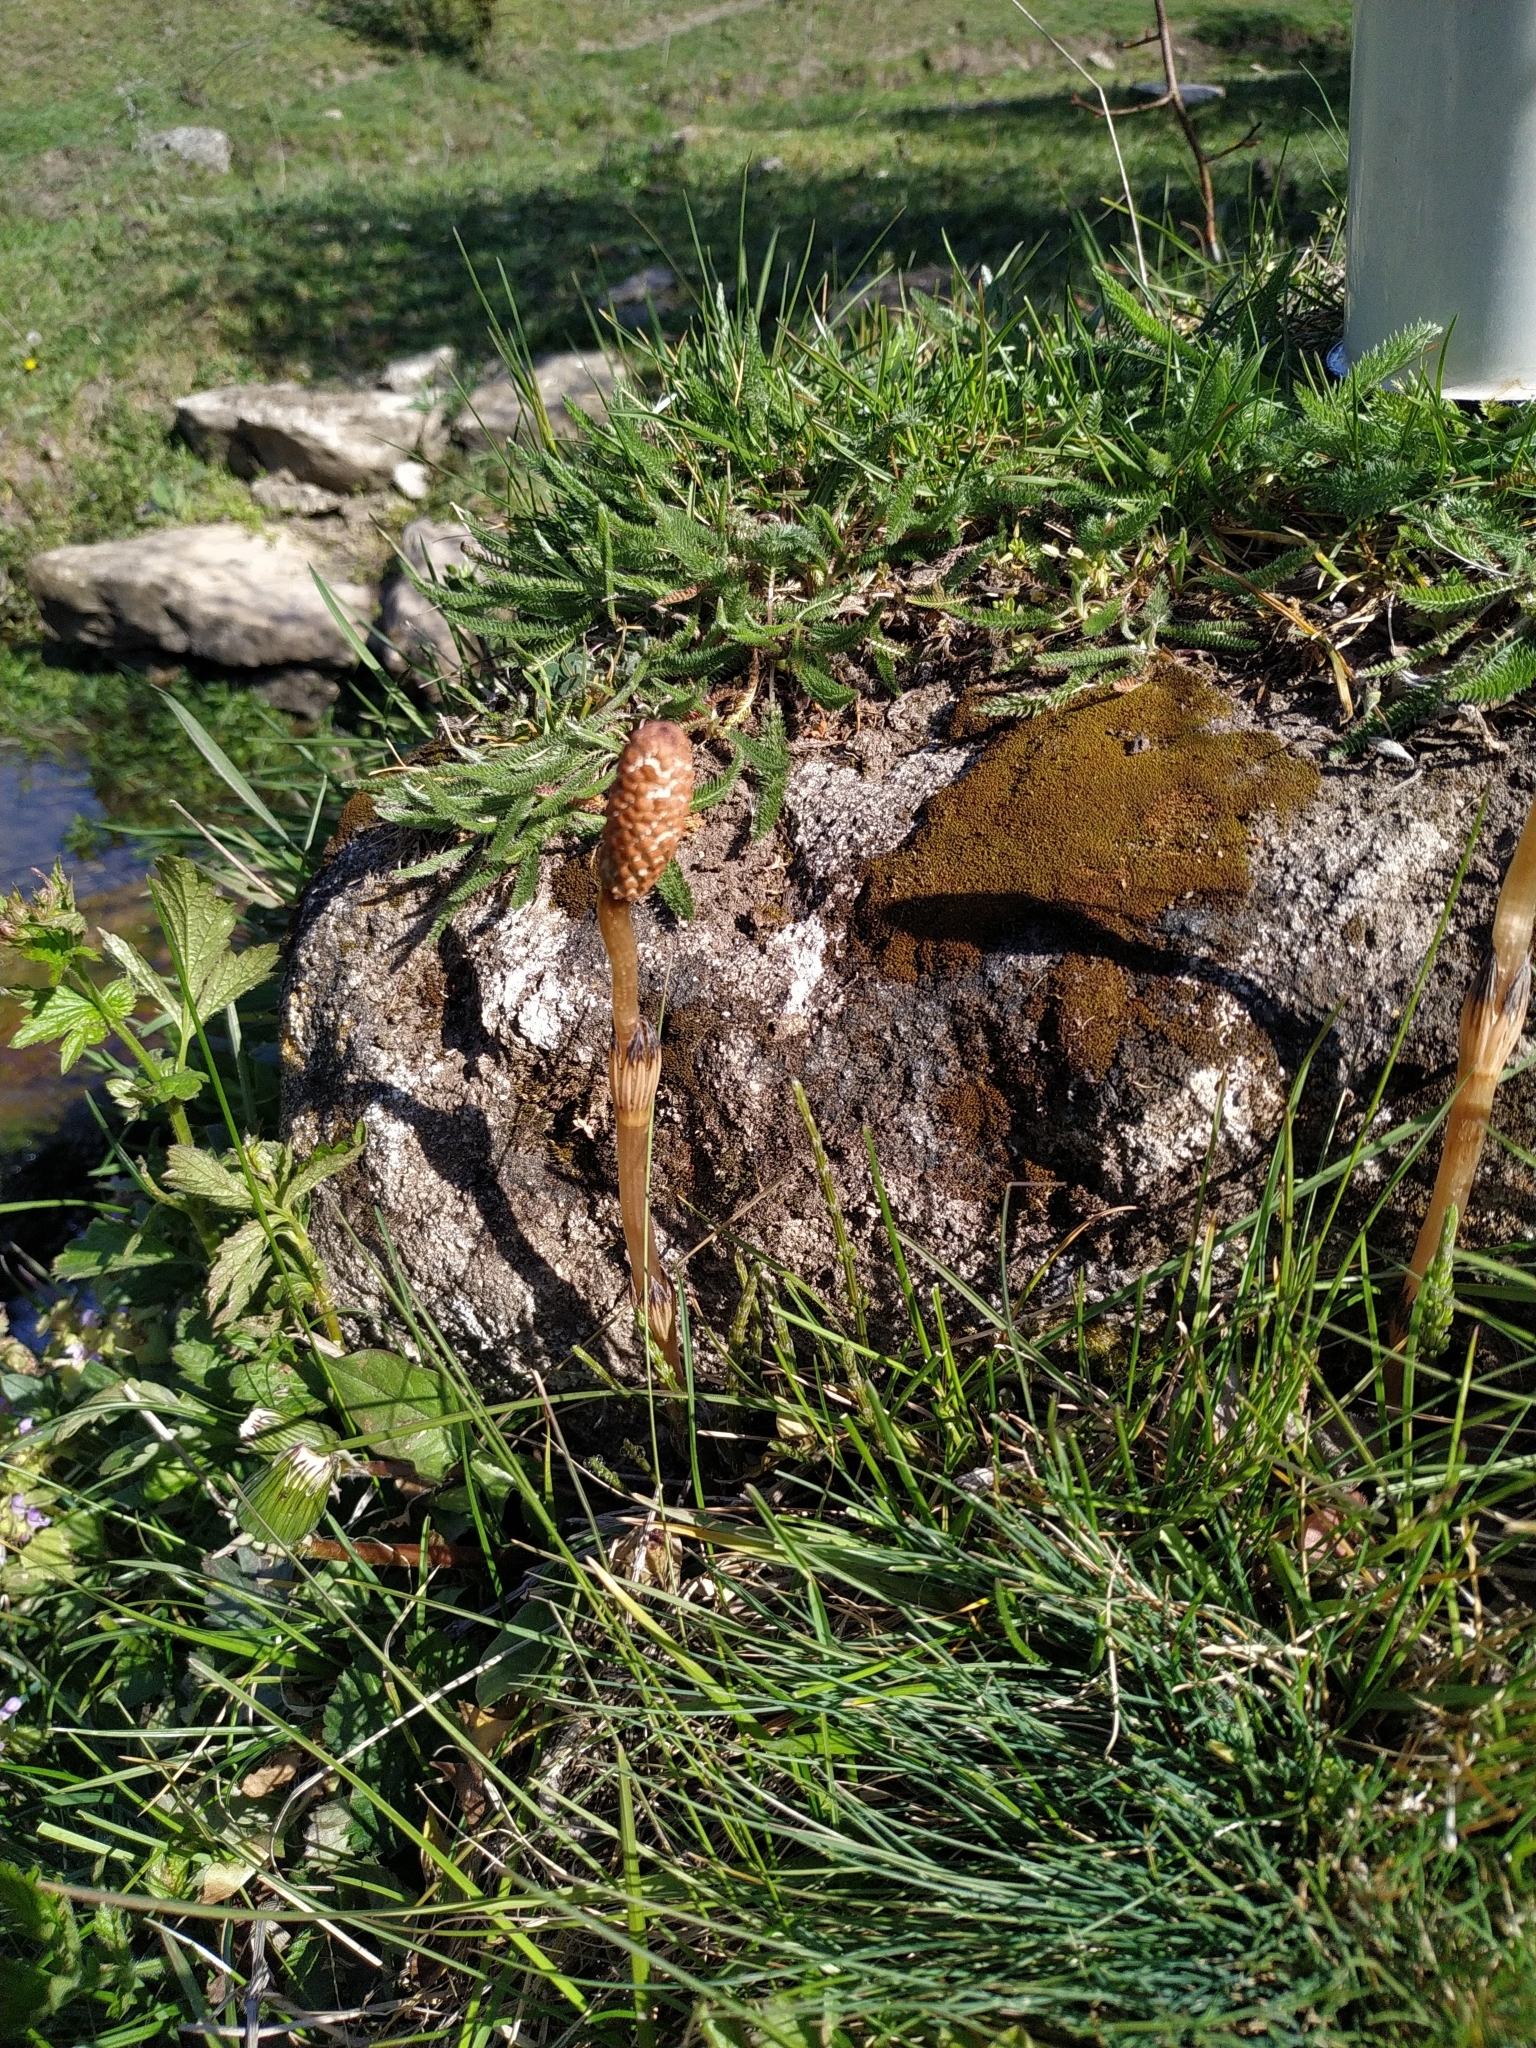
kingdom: Plantae
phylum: Tracheophyta
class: Polypodiopsida
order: Equisetales
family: Equisetaceae
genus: Equisetum
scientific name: Equisetum arvense
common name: Field horsetail
